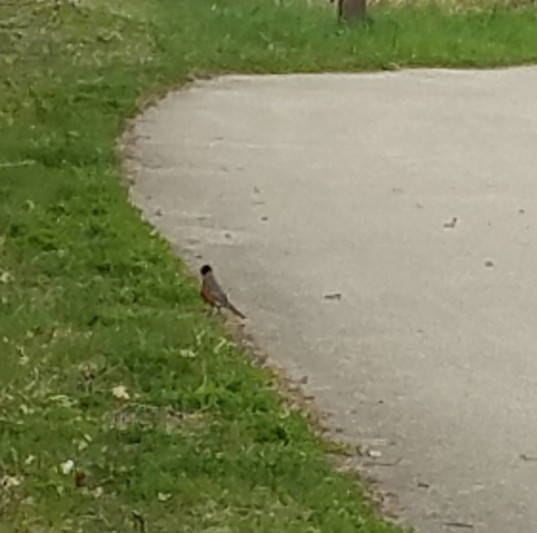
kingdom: Animalia
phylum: Chordata
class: Aves
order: Passeriformes
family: Turdidae
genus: Turdus
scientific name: Turdus migratorius
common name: American robin
